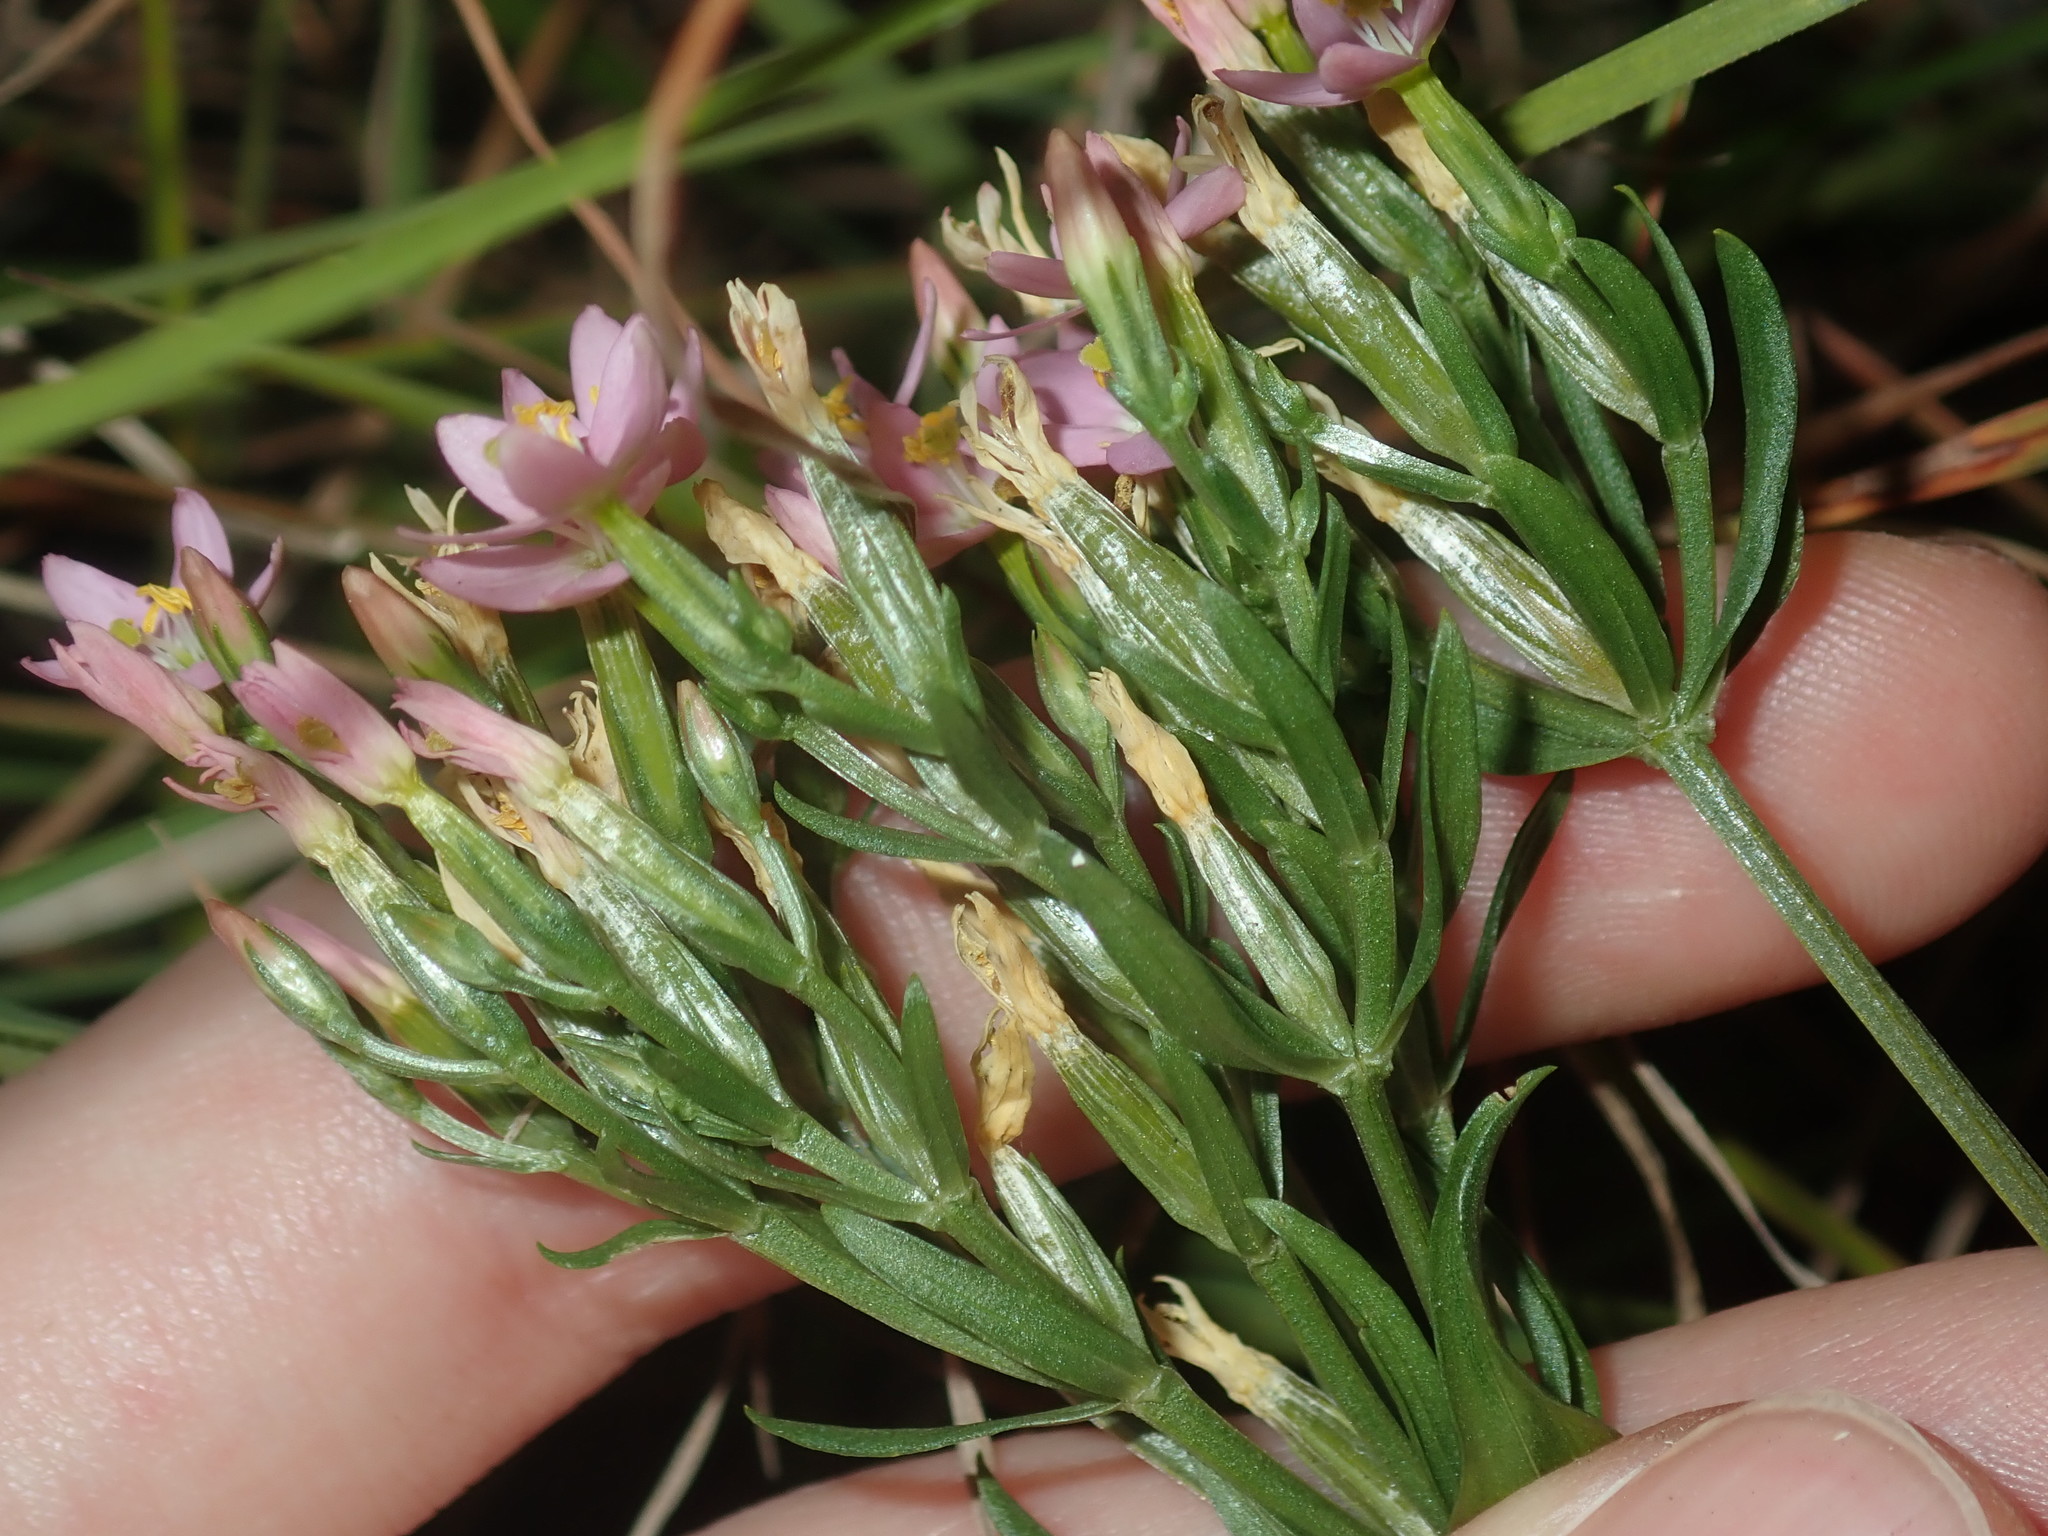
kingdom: Plantae
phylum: Tracheophyta
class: Magnoliopsida
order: Gentianales
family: Gentianaceae
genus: Centaurium
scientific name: Centaurium erythraea
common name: Common centaury
